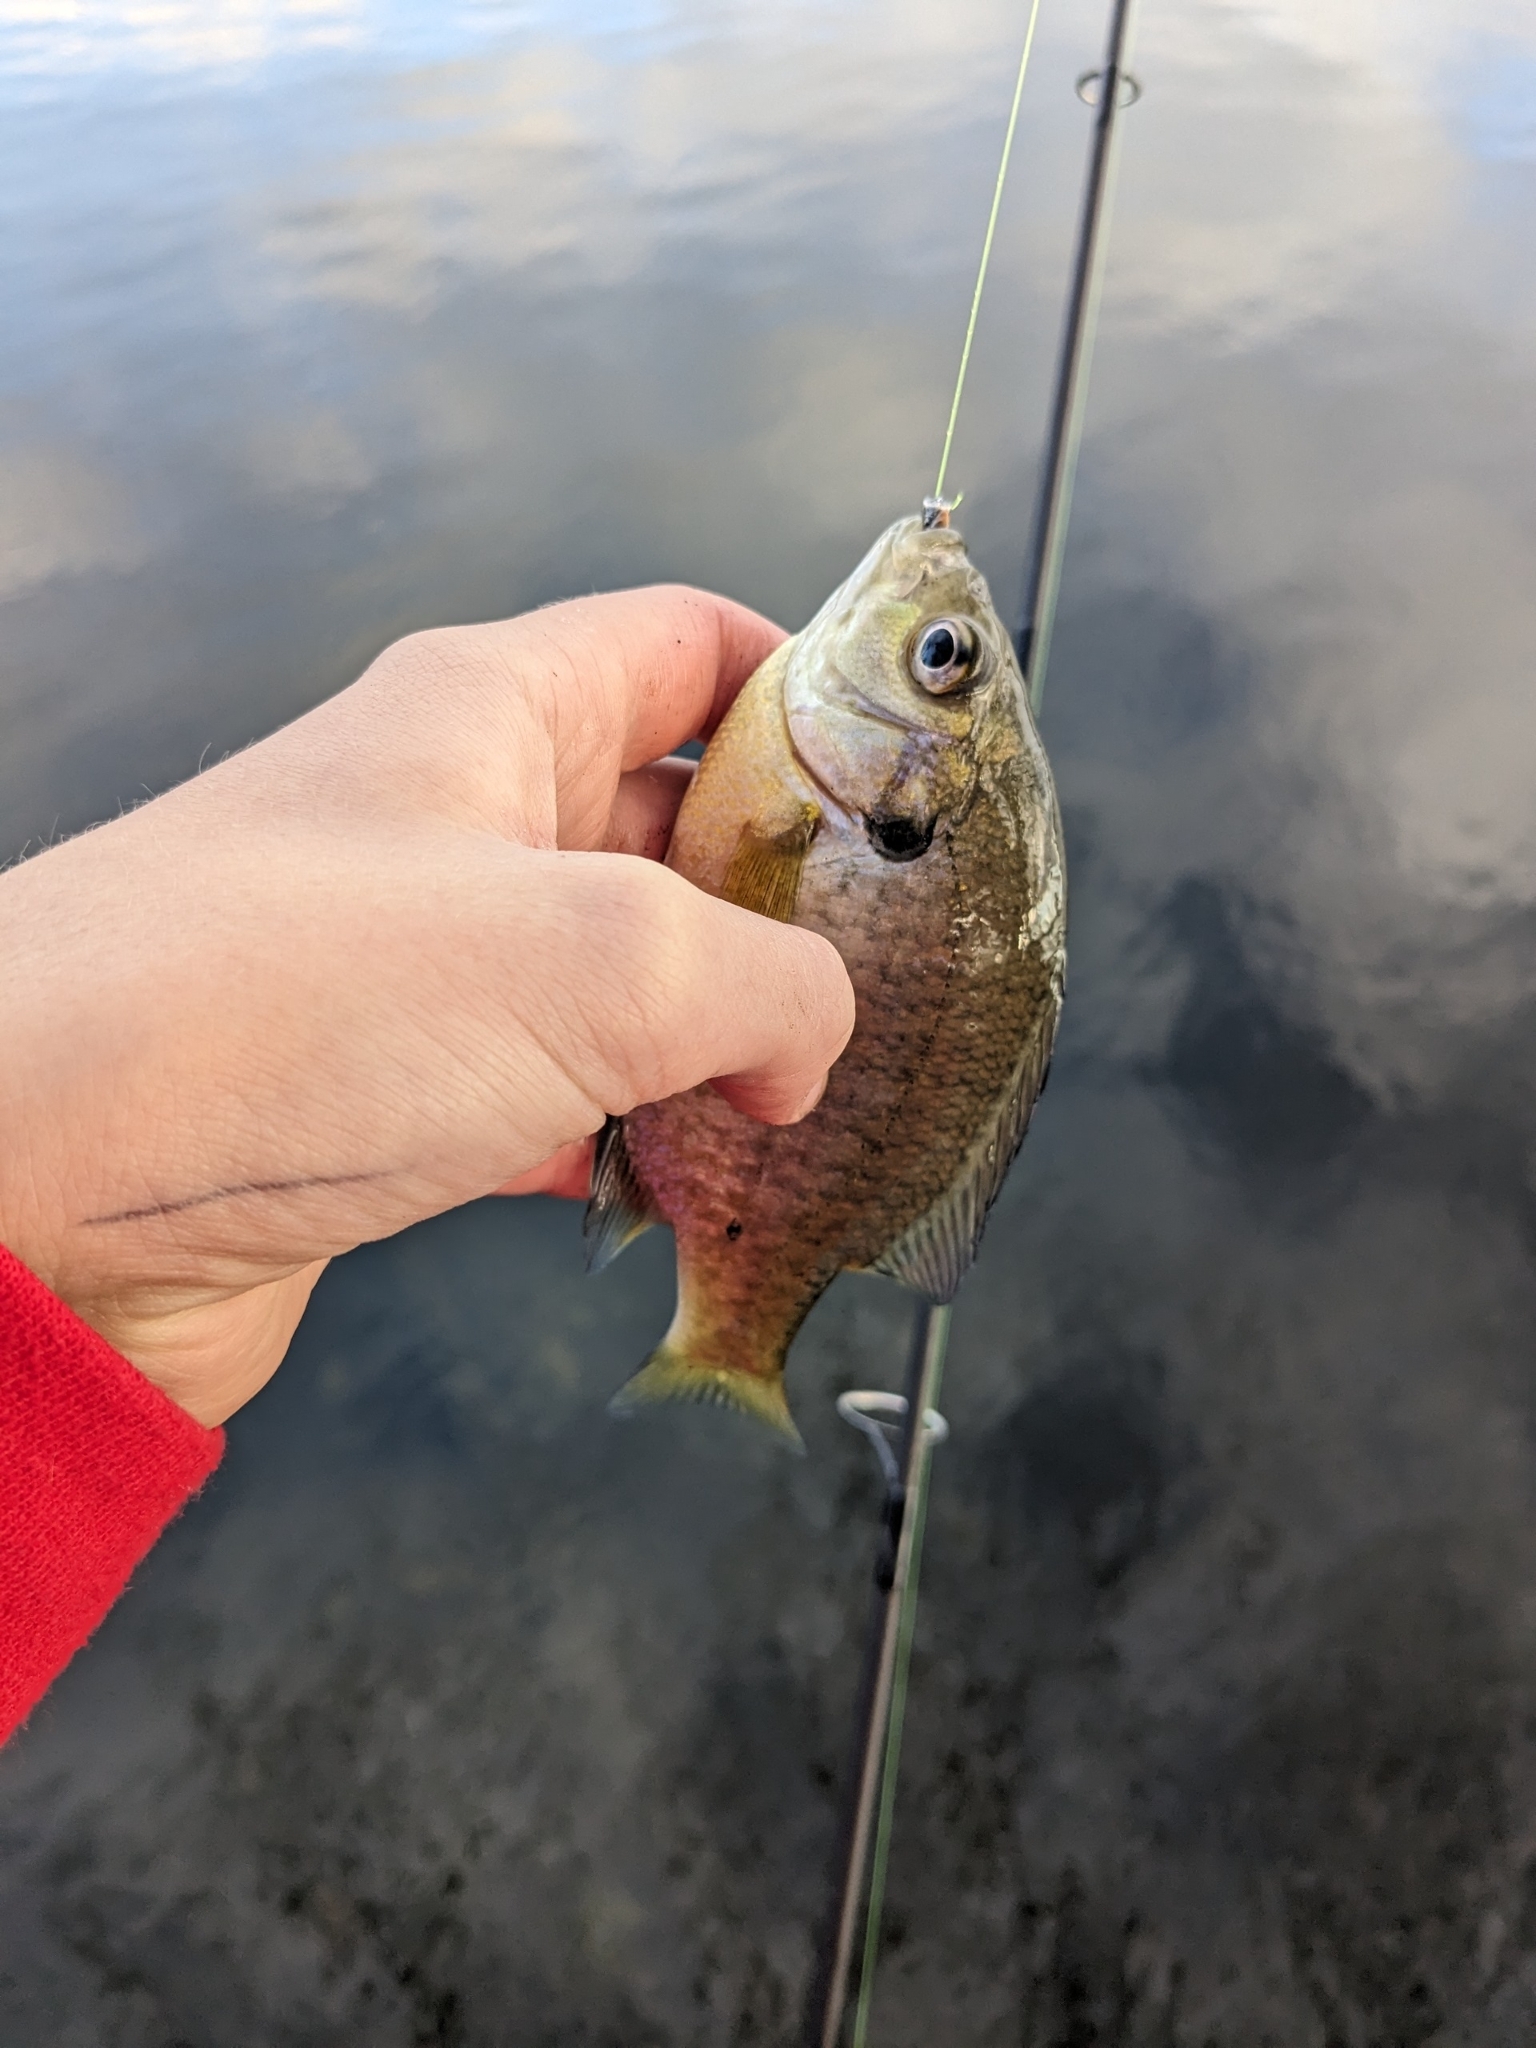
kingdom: Animalia
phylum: Chordata
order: Perciformes
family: Centrarchidae
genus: Lepomis
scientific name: Lepomis macrochirus
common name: Bluegill
